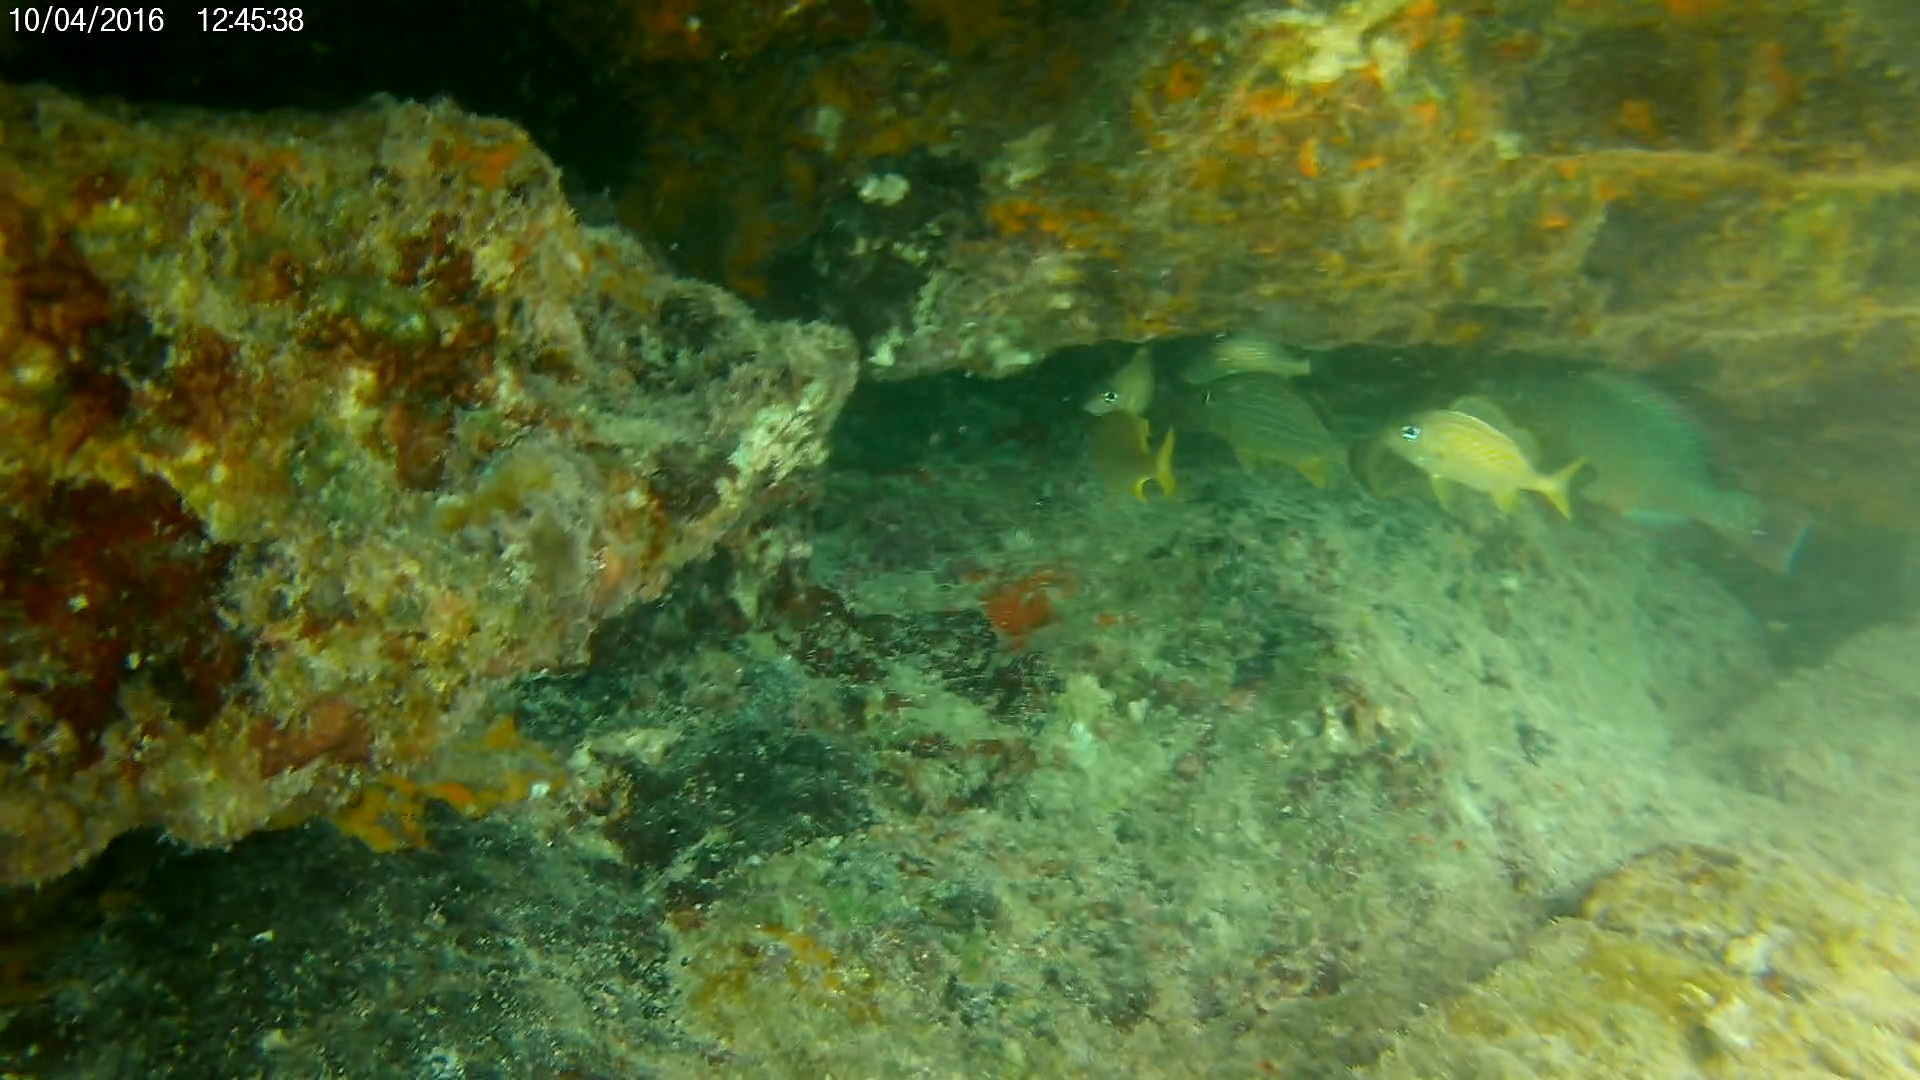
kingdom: Animalia
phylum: Chordata
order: Perciformes
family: Haemulidae
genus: Haemulon
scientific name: Haemulon flavolineatum
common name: French grunt
